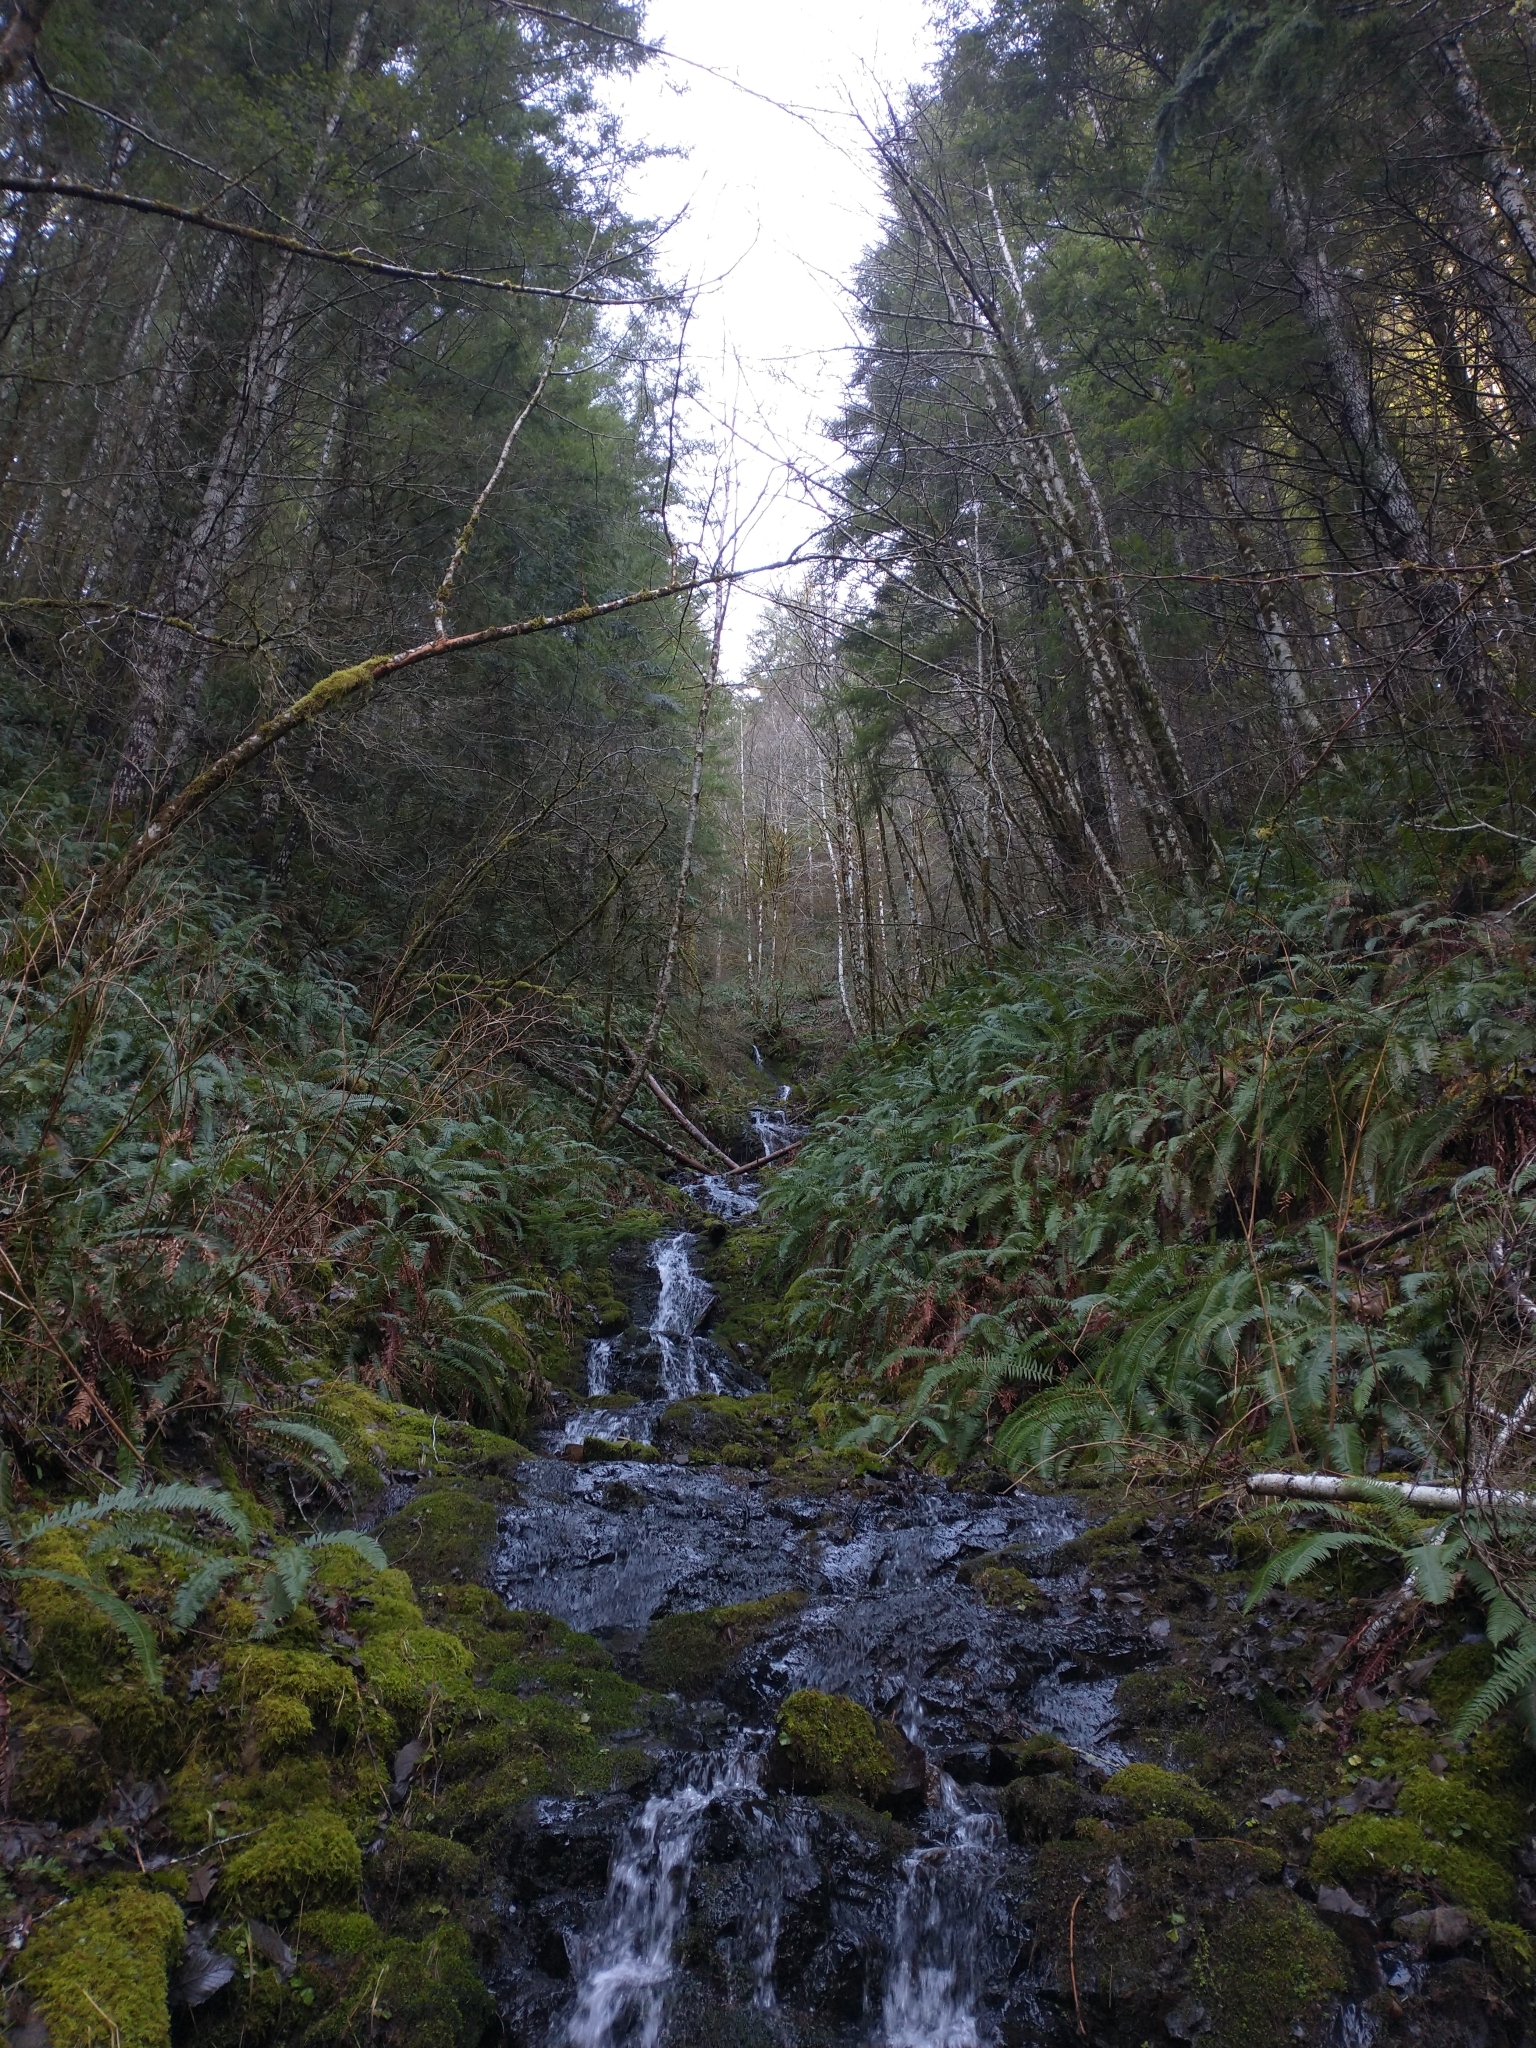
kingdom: Plantae
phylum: Tracheophyta
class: Polypodiopsida
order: Polypodiales
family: Dryopteridaceae
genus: Polystichum
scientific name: Polystichum munitum
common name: Western sword-fern
